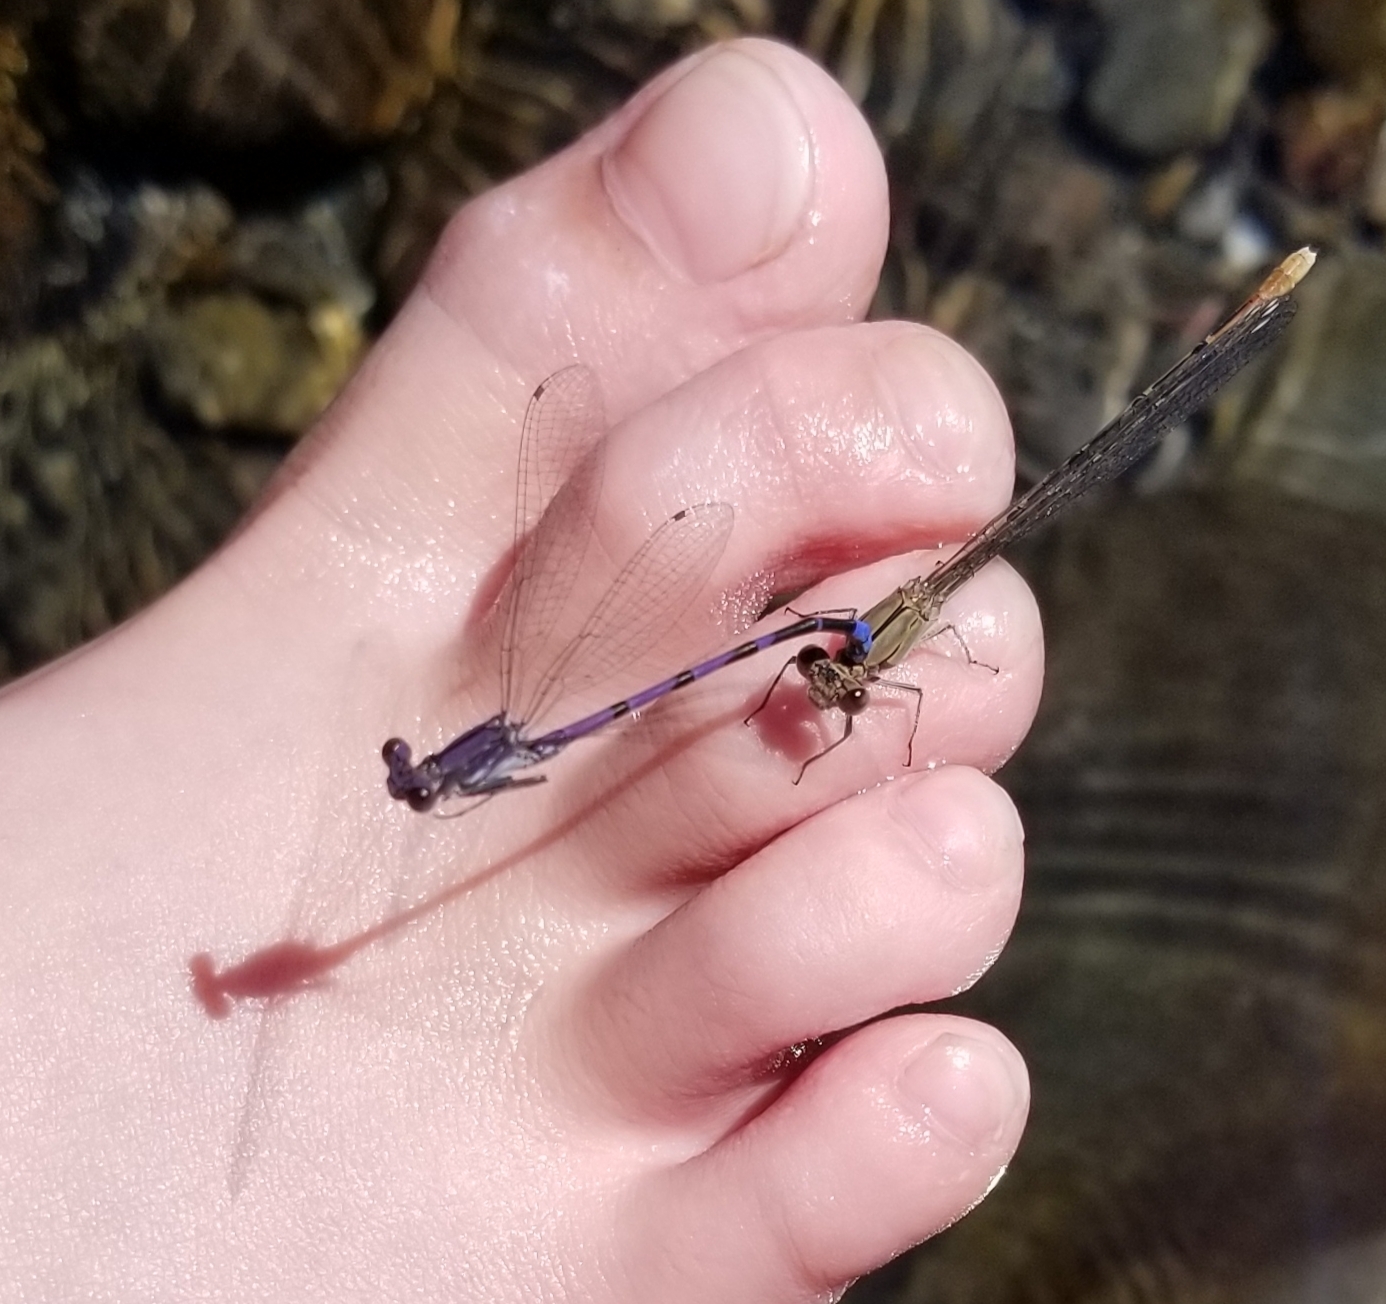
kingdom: Animalia
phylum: Arthropoda
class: Insecta
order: Odonata
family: Coenagrionidae
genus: Argia
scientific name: Argia emma
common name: Emma's dancer
